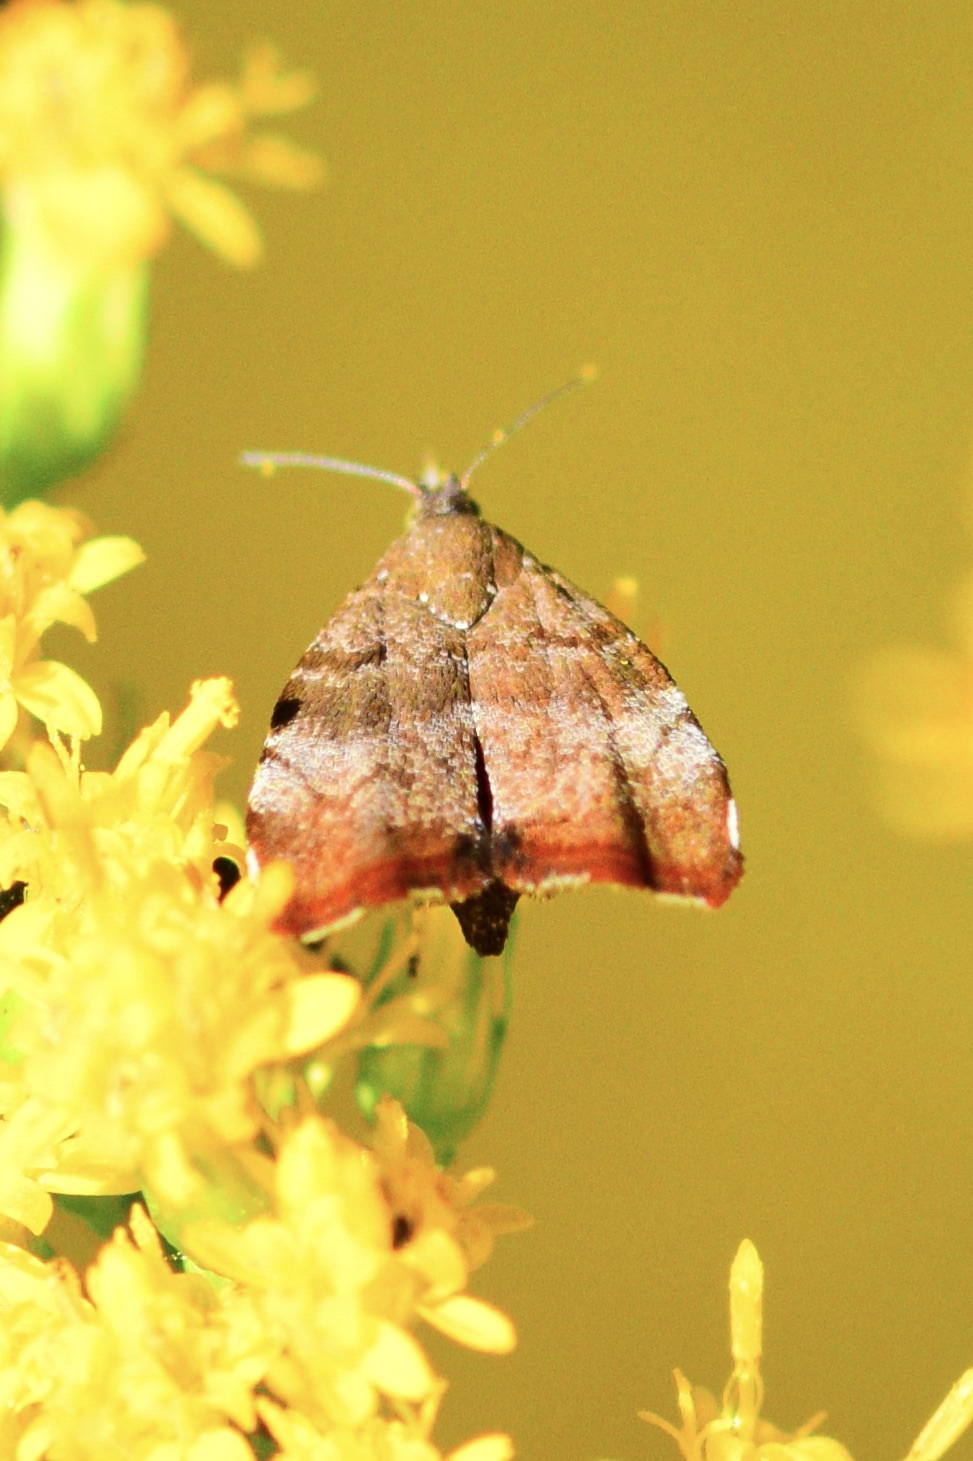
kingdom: Animalia
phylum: Arthropoda
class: Insecta
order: Lepidoptera
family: Choreutidae
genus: Choreutis
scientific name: Choreutis pariana
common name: Apple leaf skeletoniser
